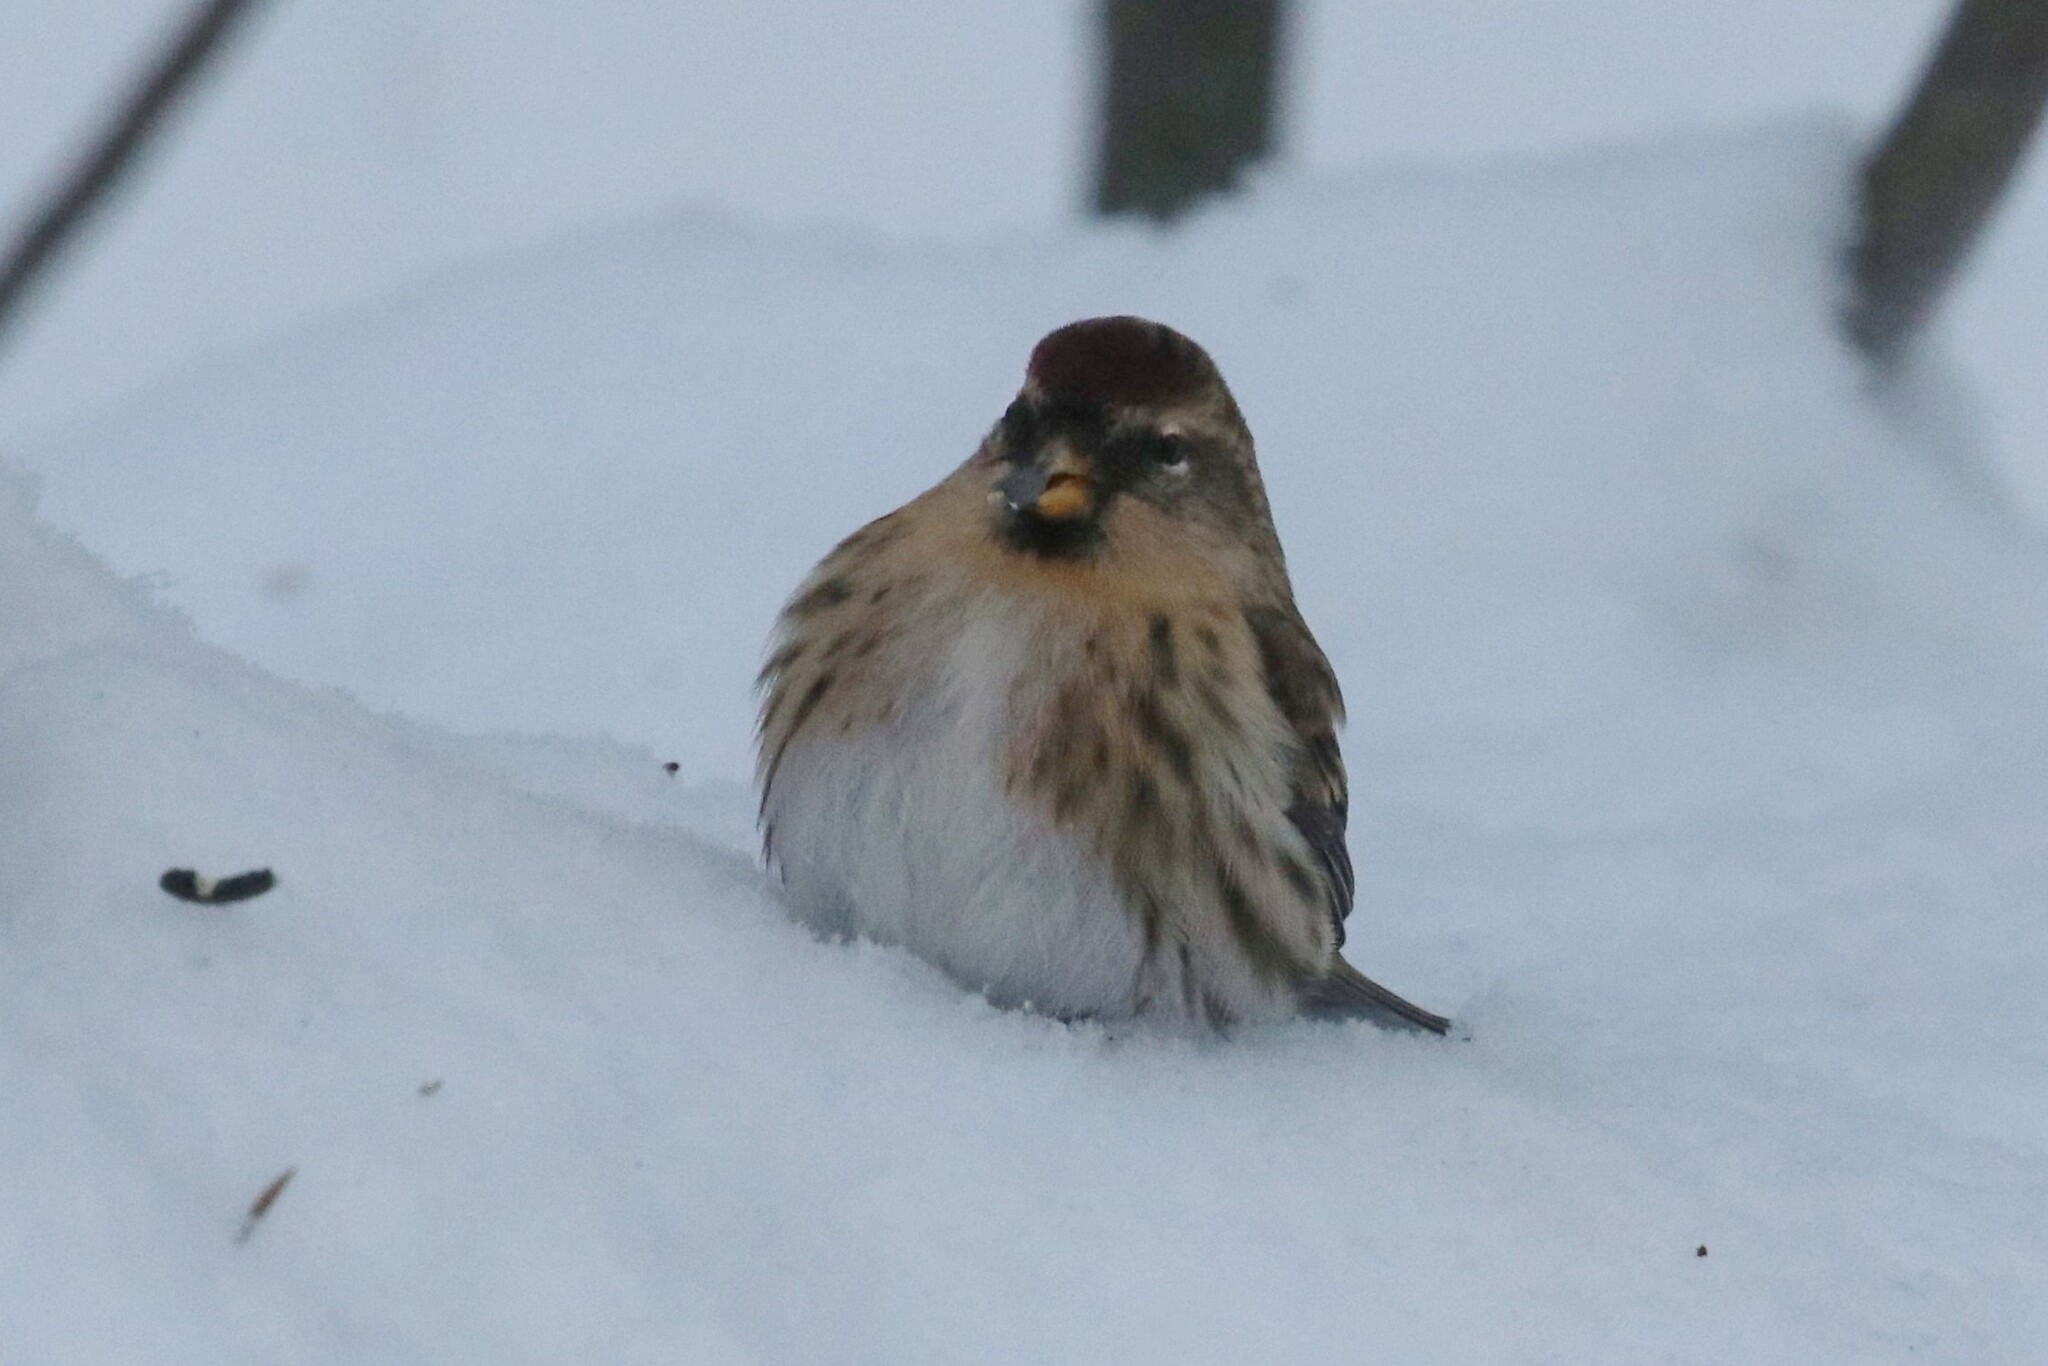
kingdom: Animalia
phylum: Chordata
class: Aves
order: Passeriformes
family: Fringillidae
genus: Acanthis
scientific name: Acanthis flammea
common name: Common redpoll
